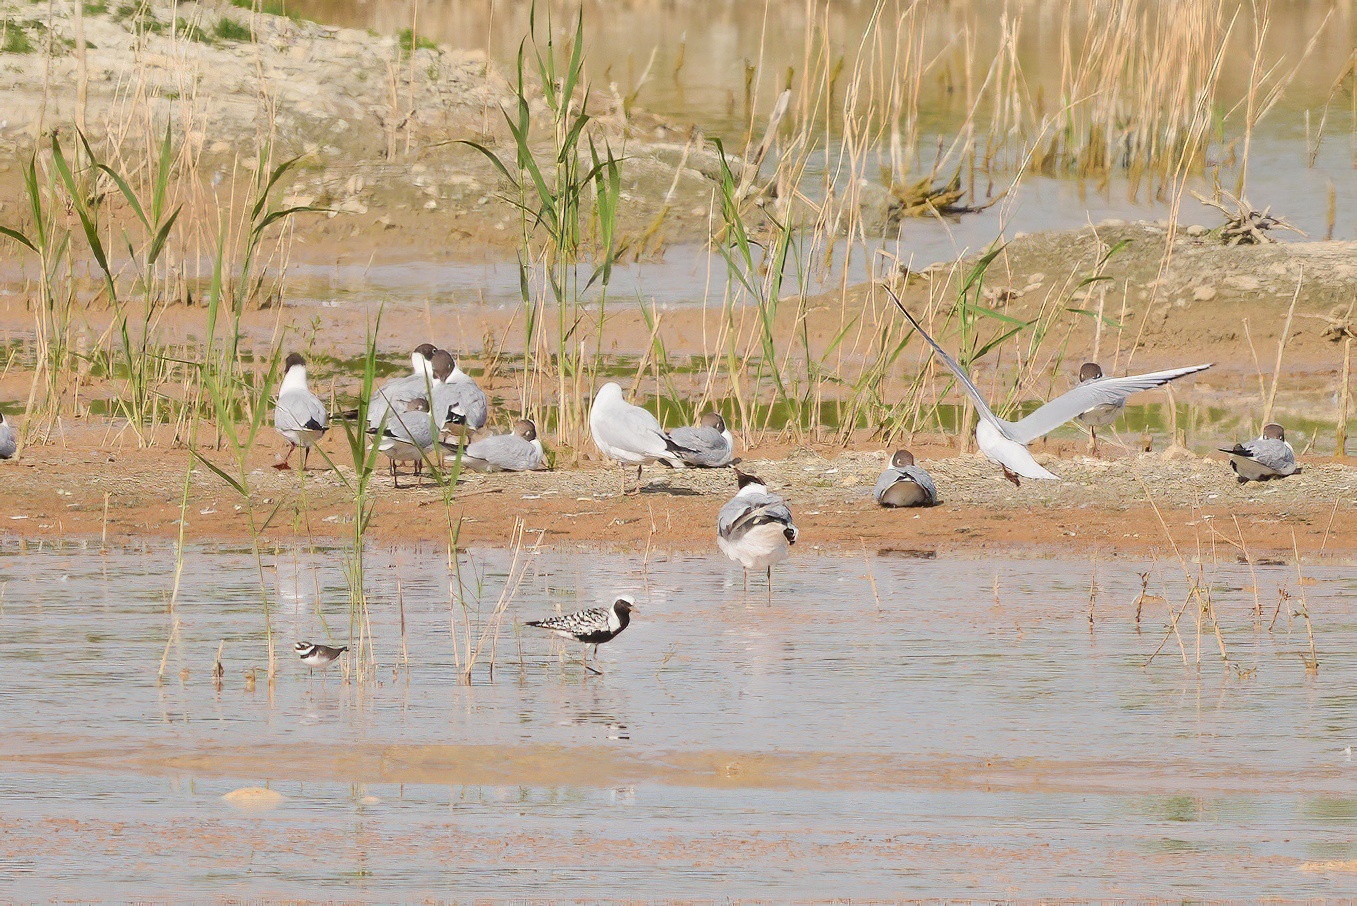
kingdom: Animalia
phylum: Chordata
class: Aves
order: Charadriiformes
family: Charadriidae
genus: Pluvialis
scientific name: Pluvialis squatarola
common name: Grey plover
